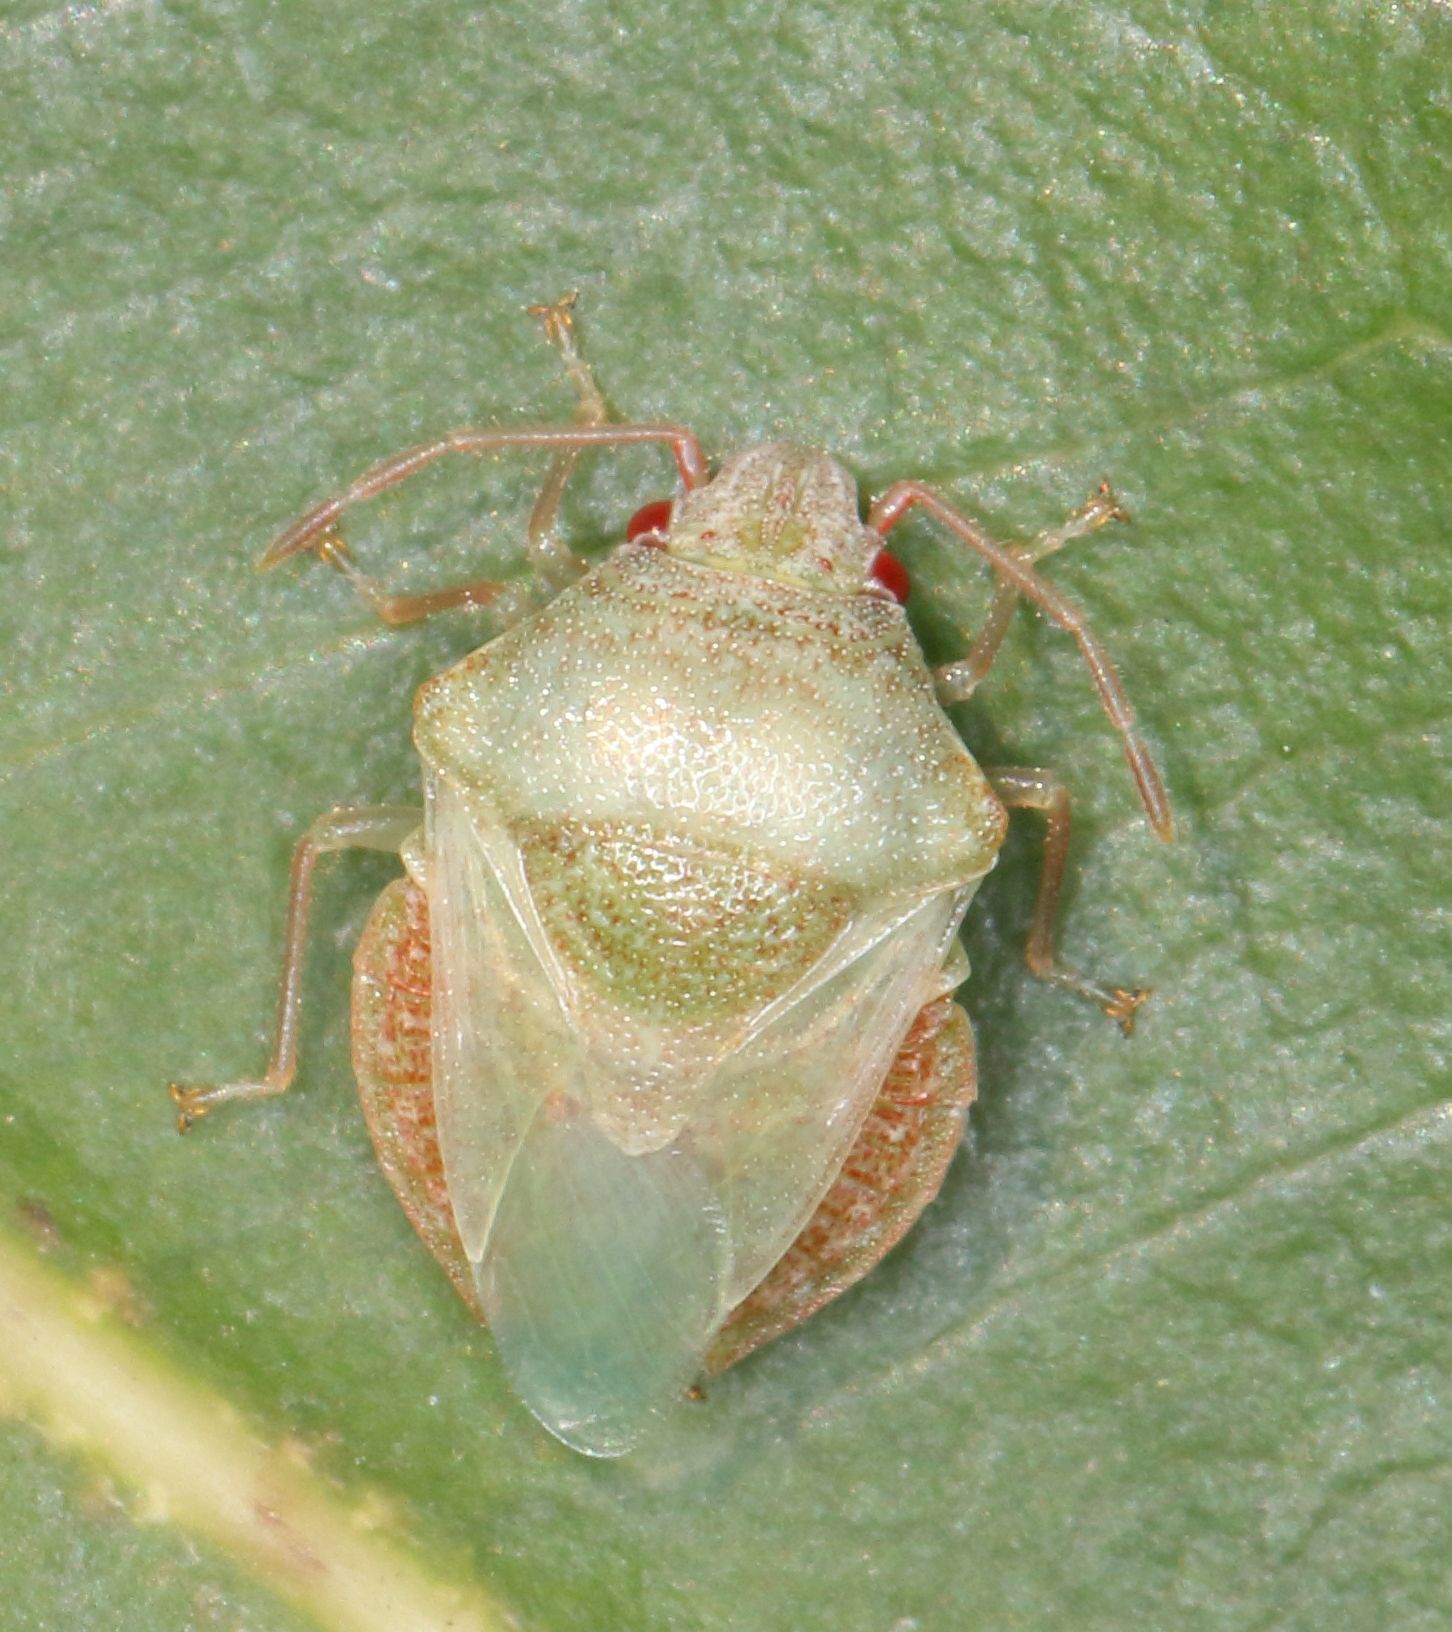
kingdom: Animalia
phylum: Arthropoda
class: Insecta
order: Hemiptera
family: Acanthosomatidae
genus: Uhlunga
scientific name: Uhlunga typica
